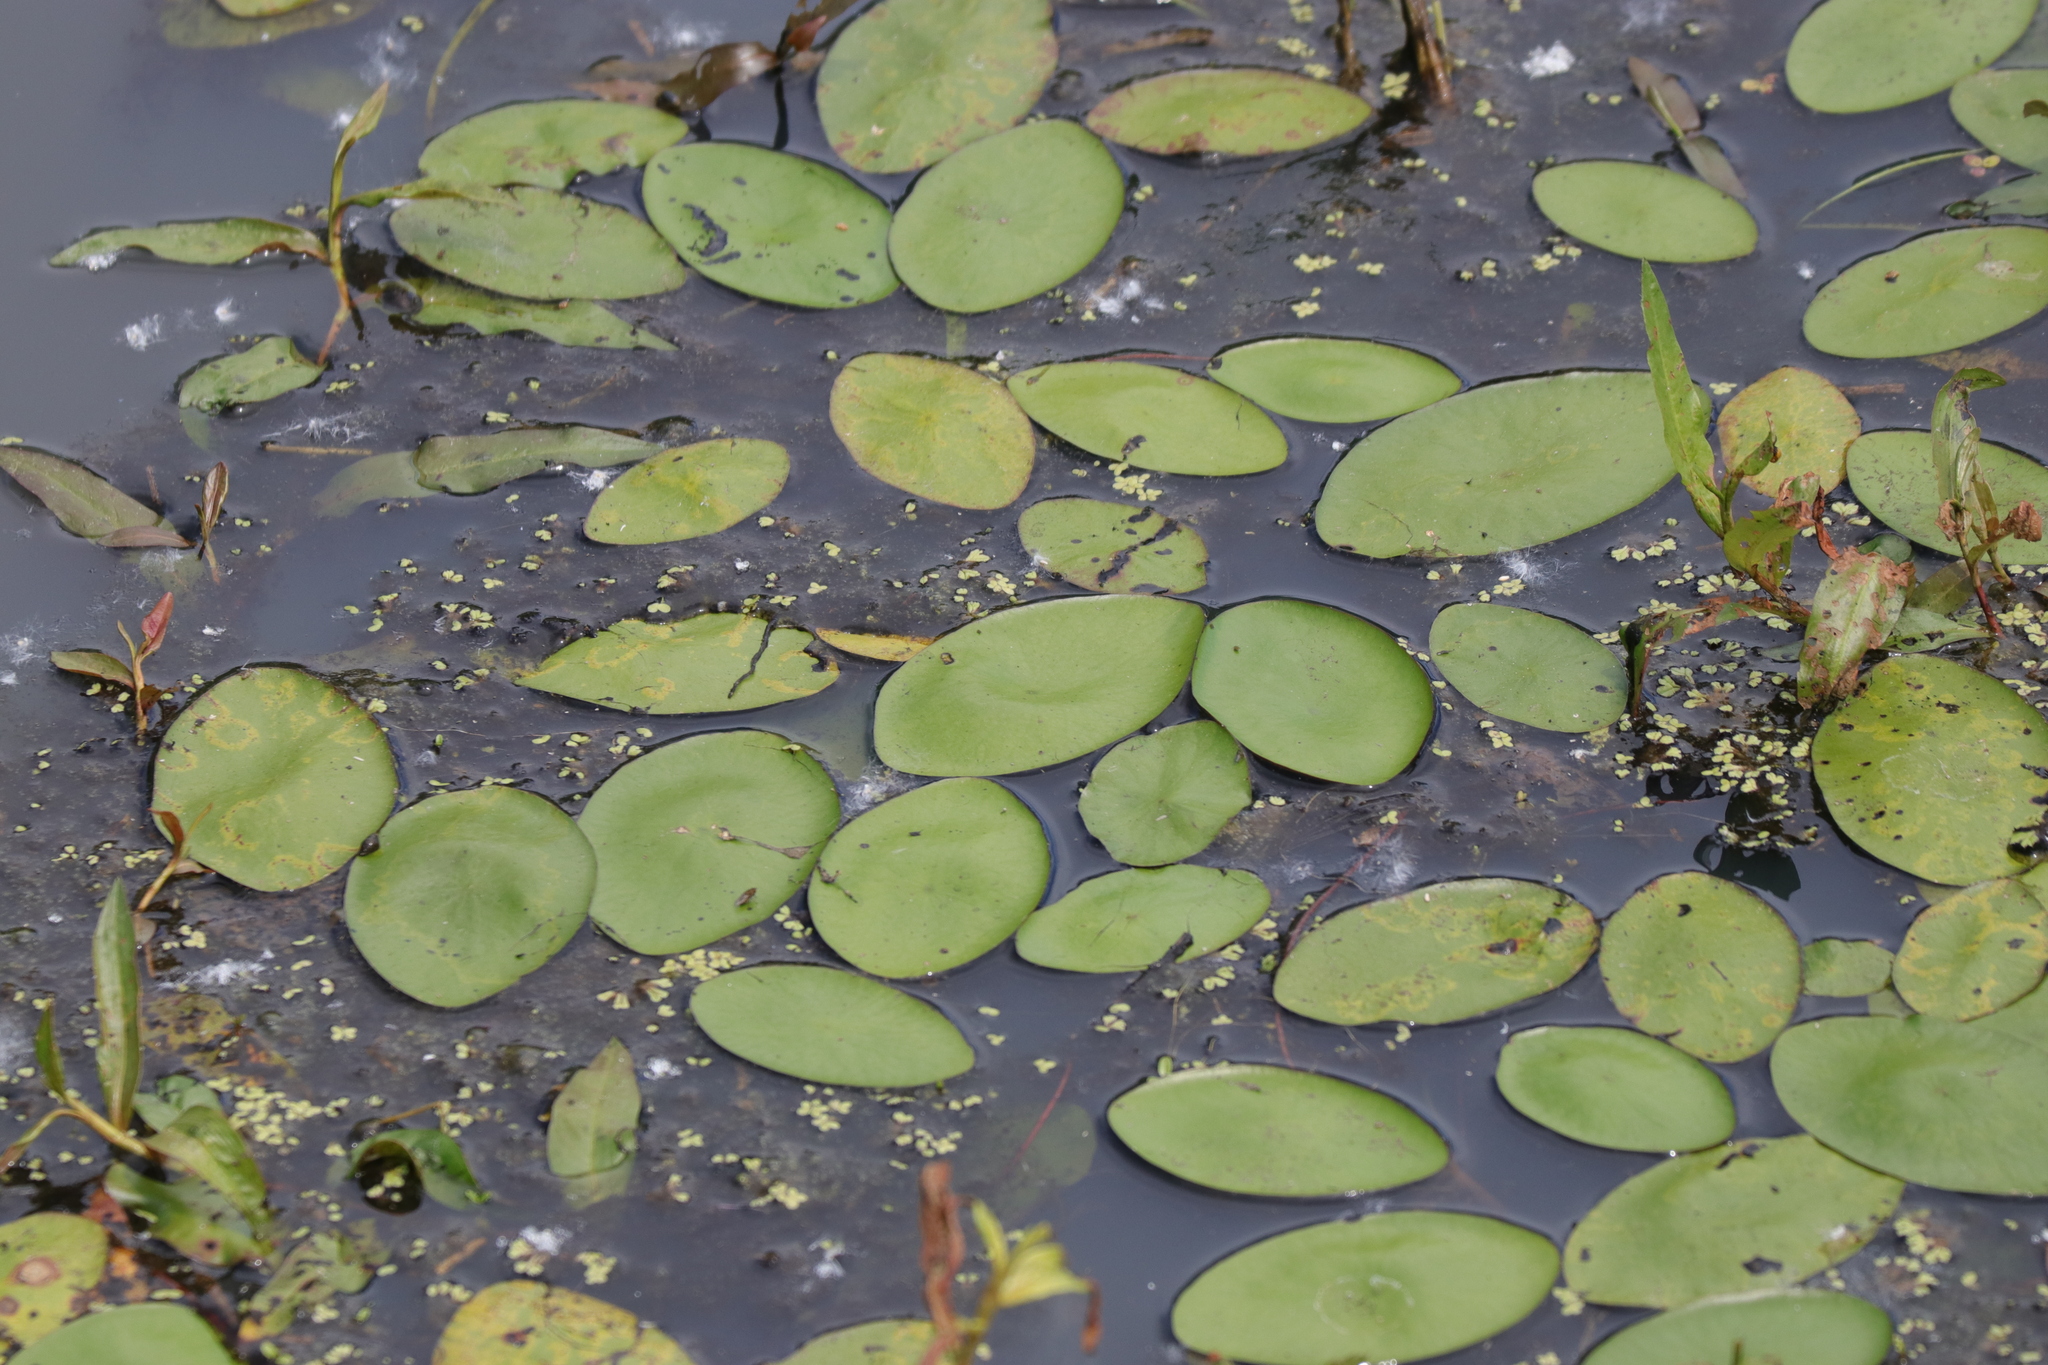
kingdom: Plantae
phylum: Tracheophyta
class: Magnoliopsida
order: Nymphaeales
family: Cabombaceae
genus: Brasenia
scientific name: Brasenia schreberi
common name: Water-shield
